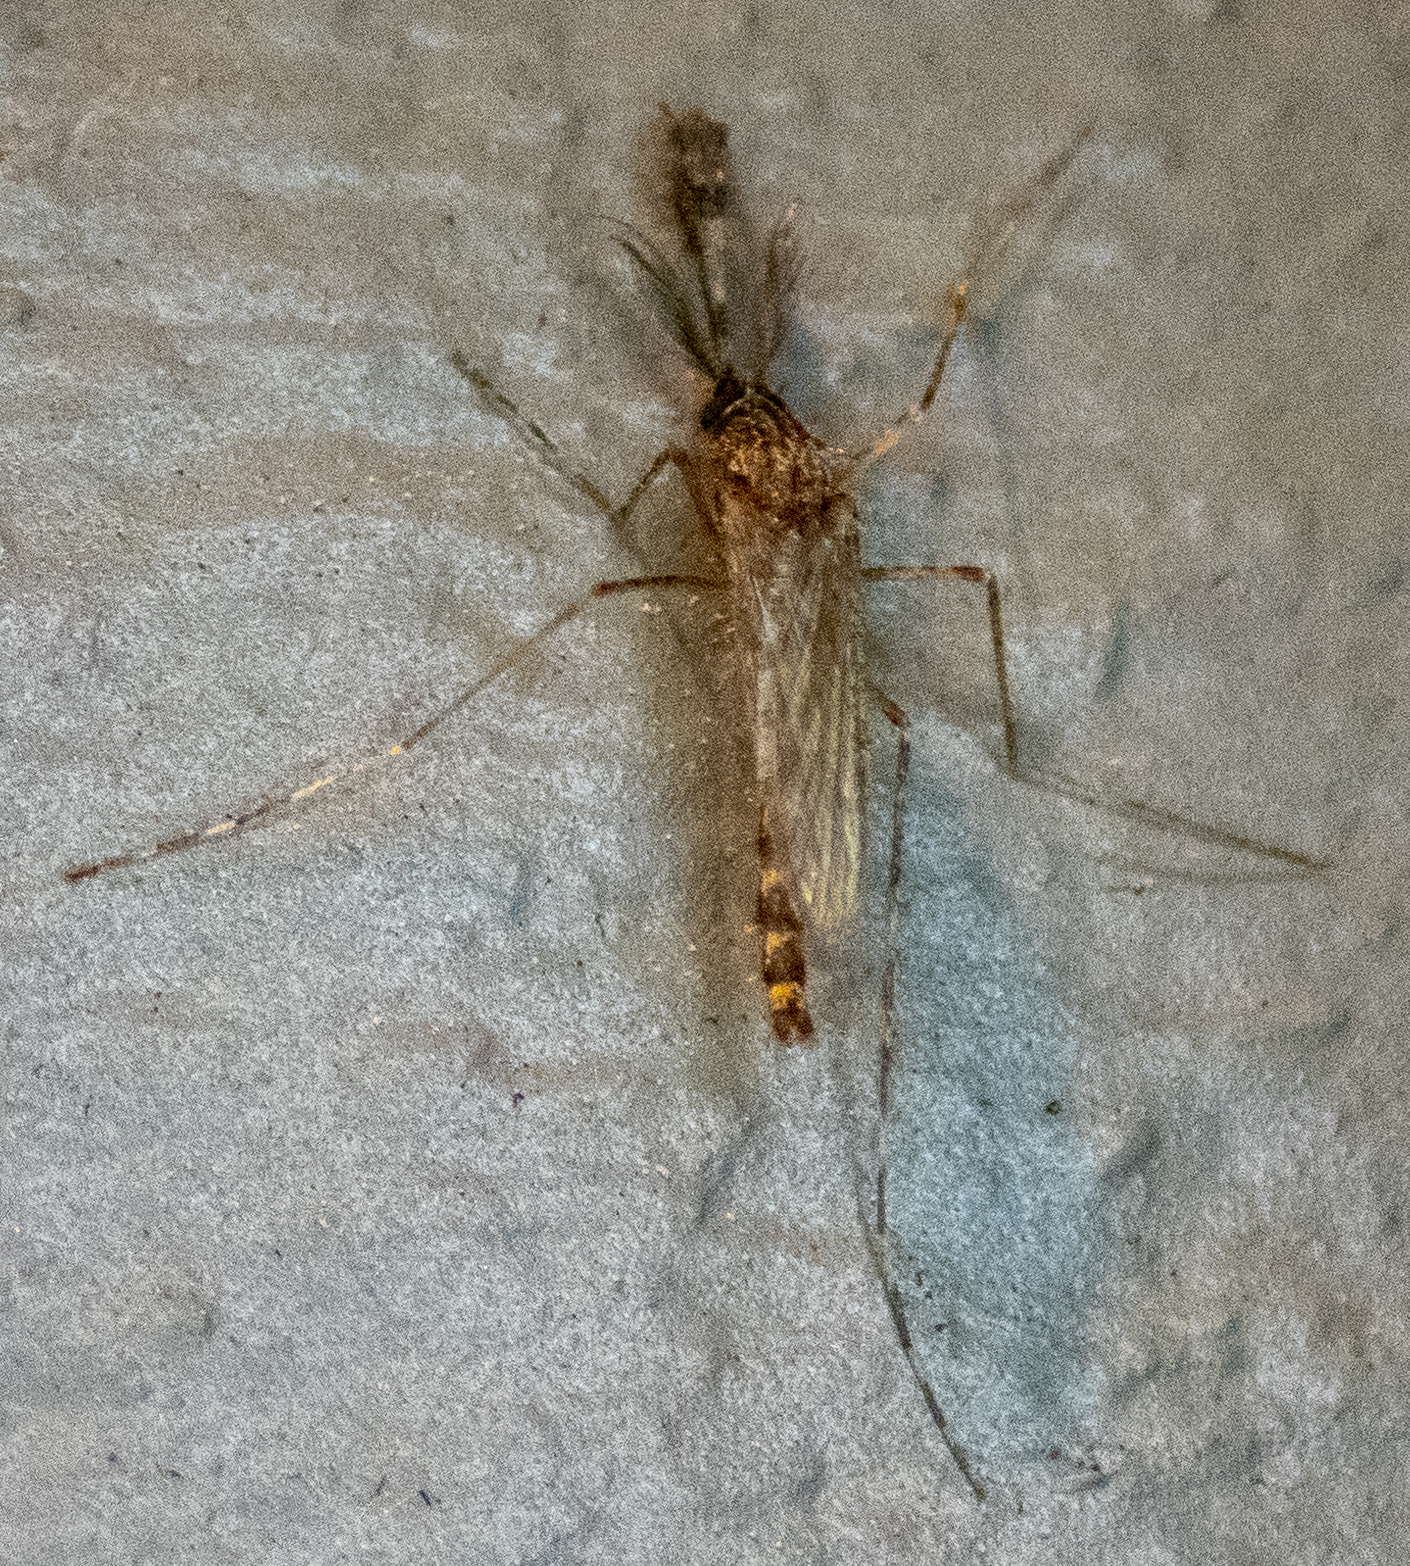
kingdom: Animalia
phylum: Arthropoda
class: Insecta
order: Diptera
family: Culicidae
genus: Coquillettidia
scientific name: Coquillettidia perturbans
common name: Cattail mosquito
